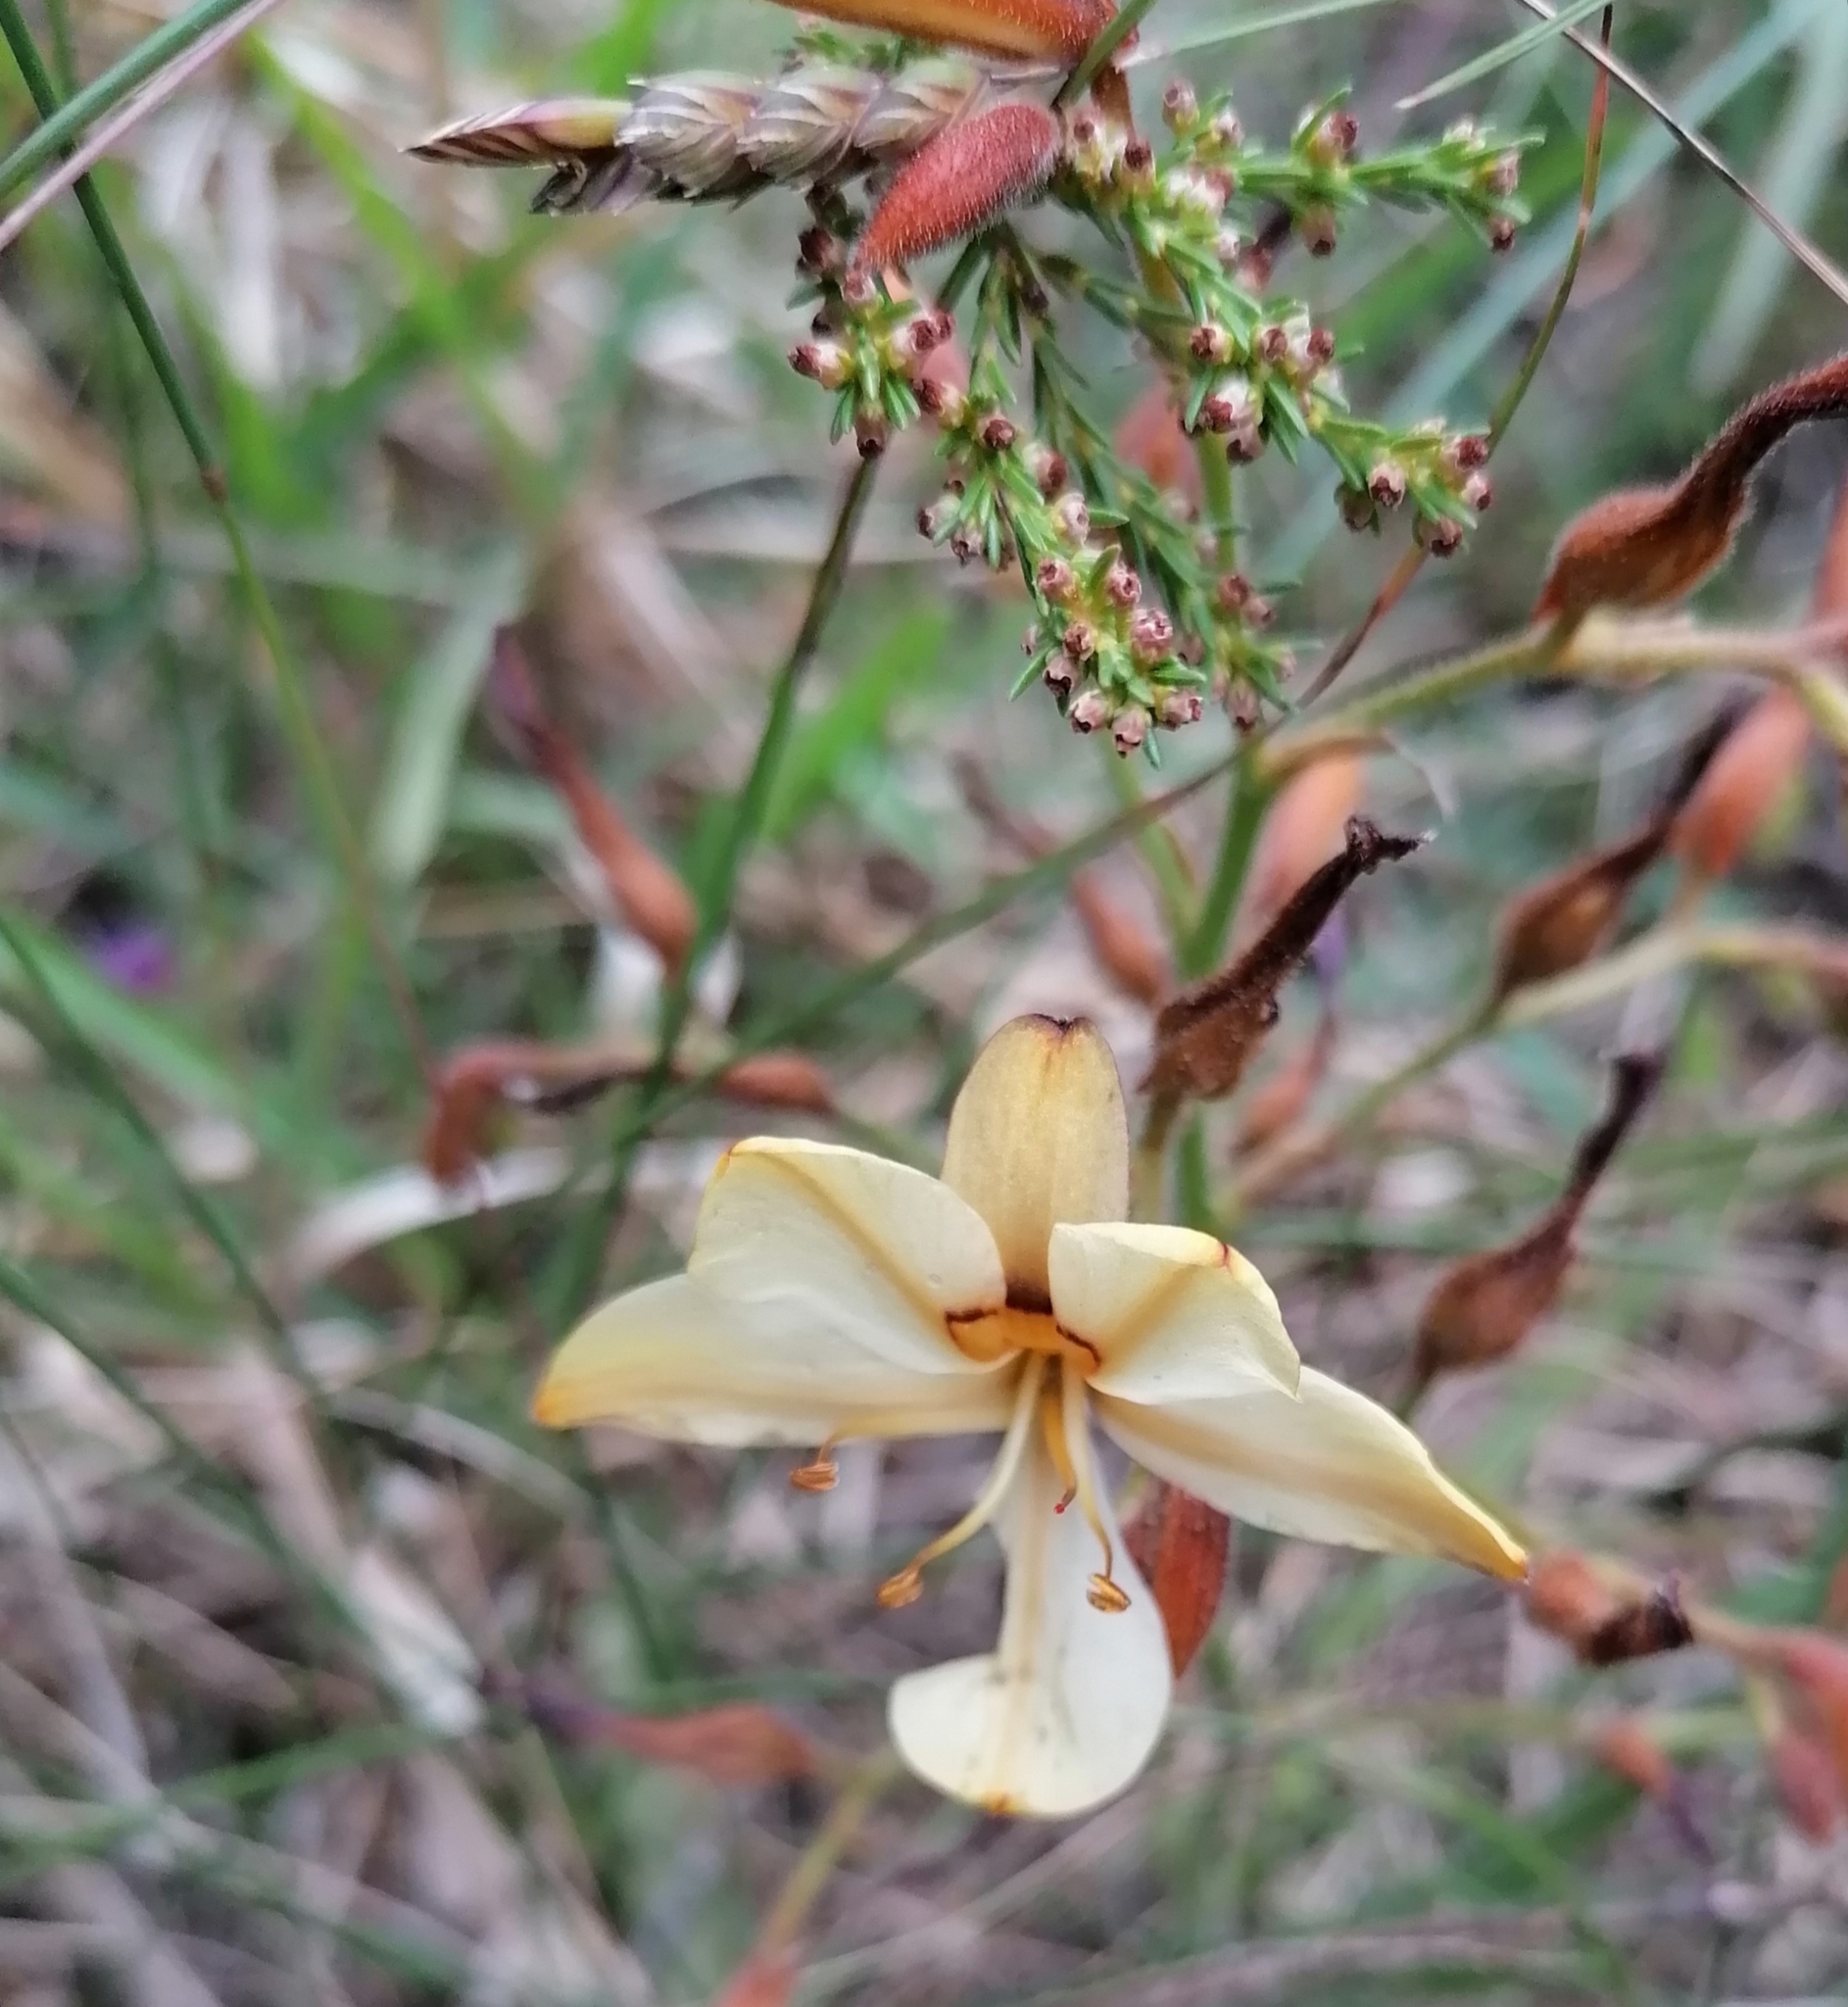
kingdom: Plantae
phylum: Tracheophyta
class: Liliopsida
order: Commelinales
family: Haemodoraceae
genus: Wachendorfia
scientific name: Wachendorfia paniculata
